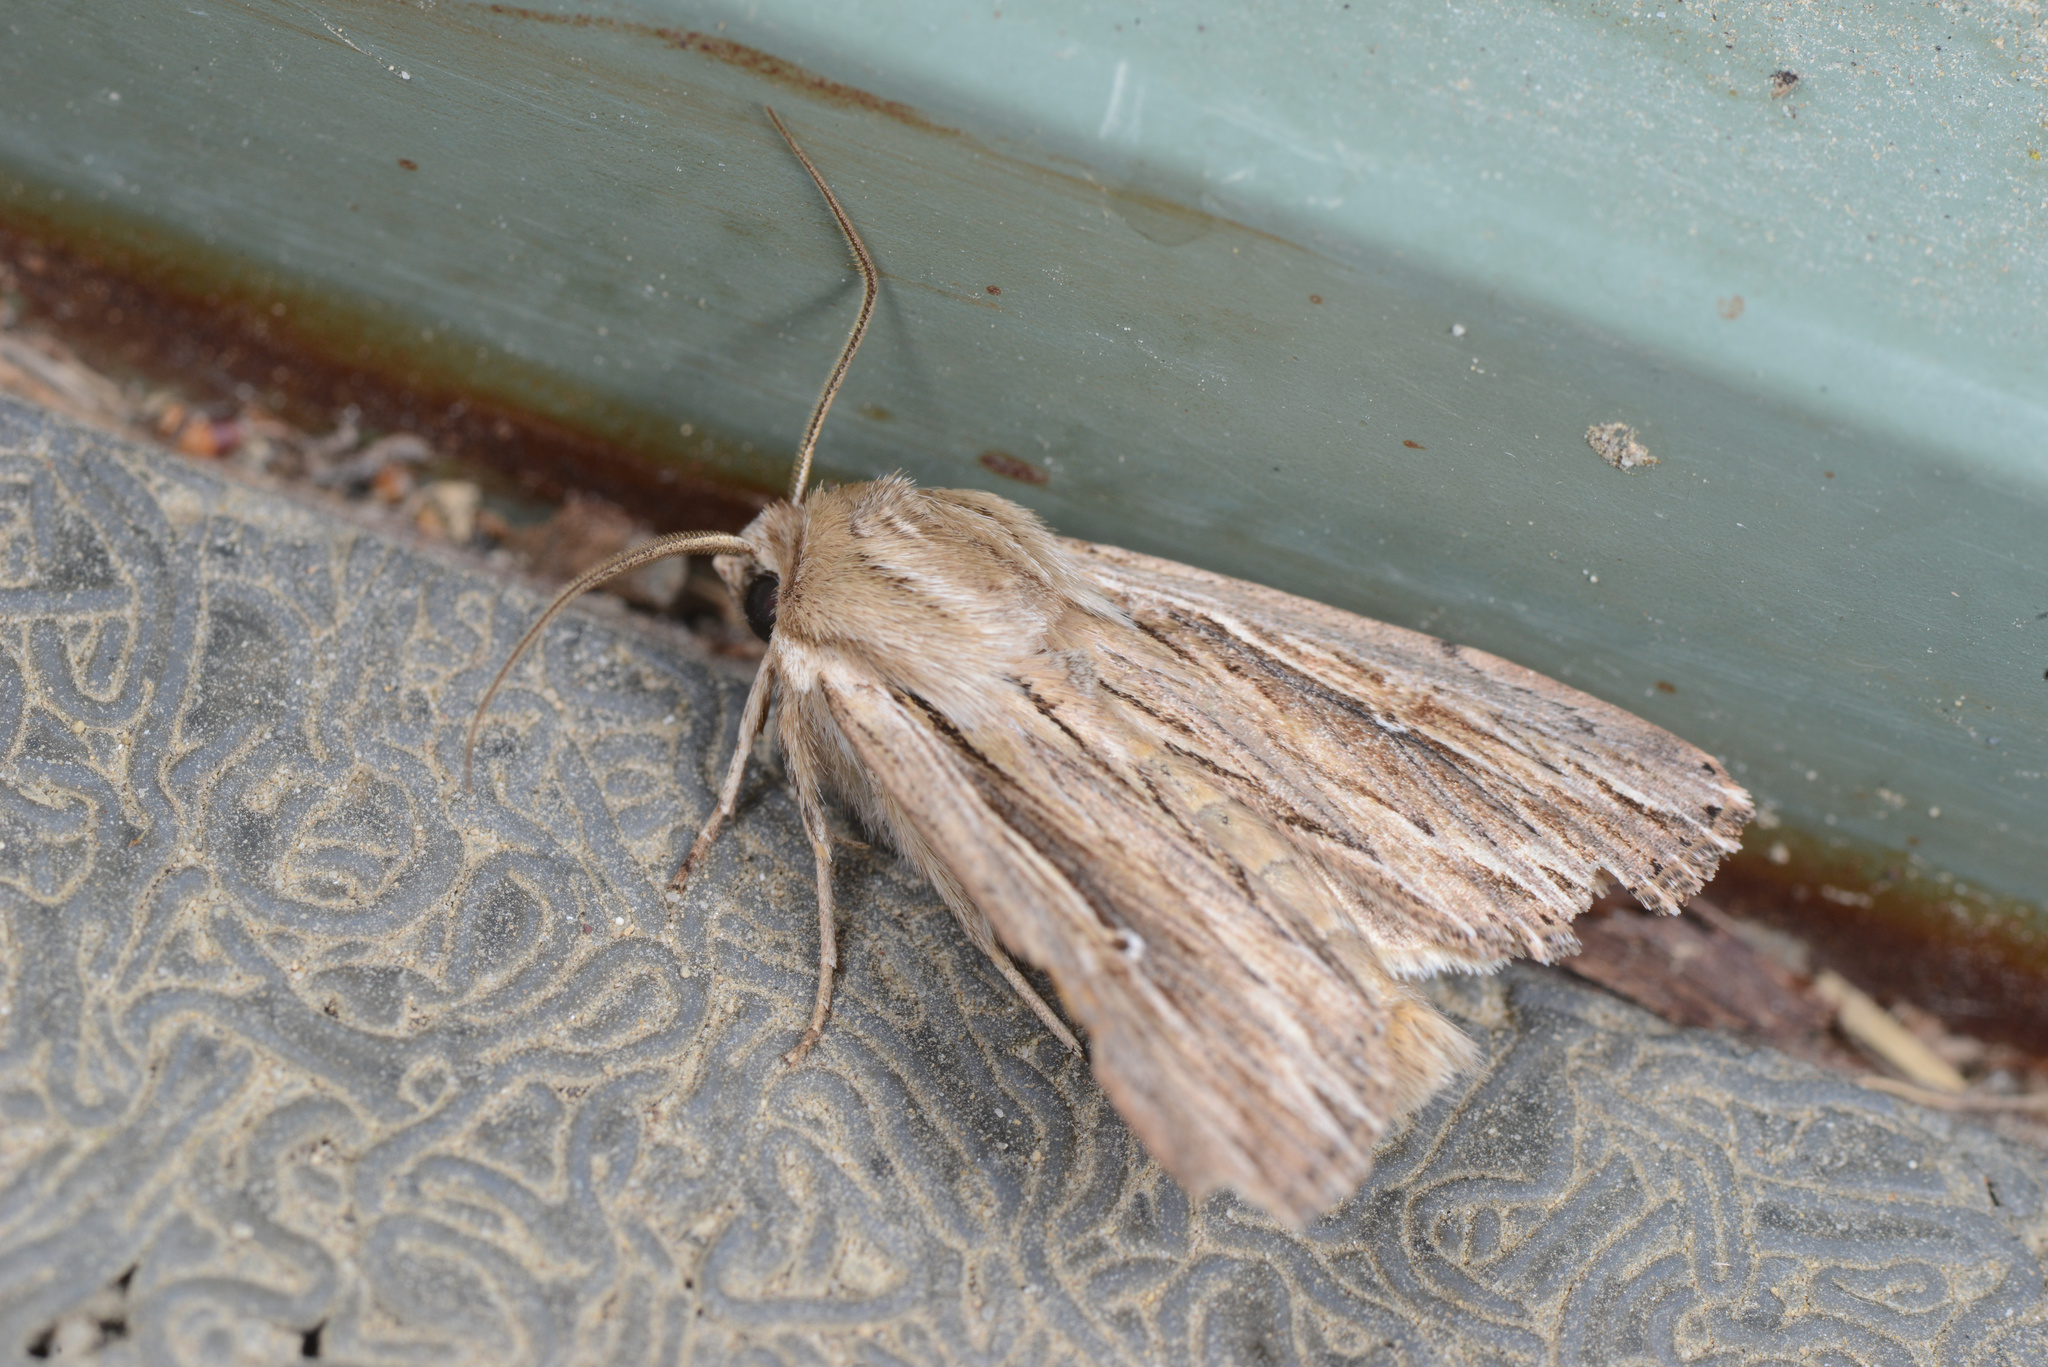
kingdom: Animalia
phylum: Arthropoda
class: Insecta
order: Lepidoptera
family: Noctuidae
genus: Persectania
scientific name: Persectania aversa
